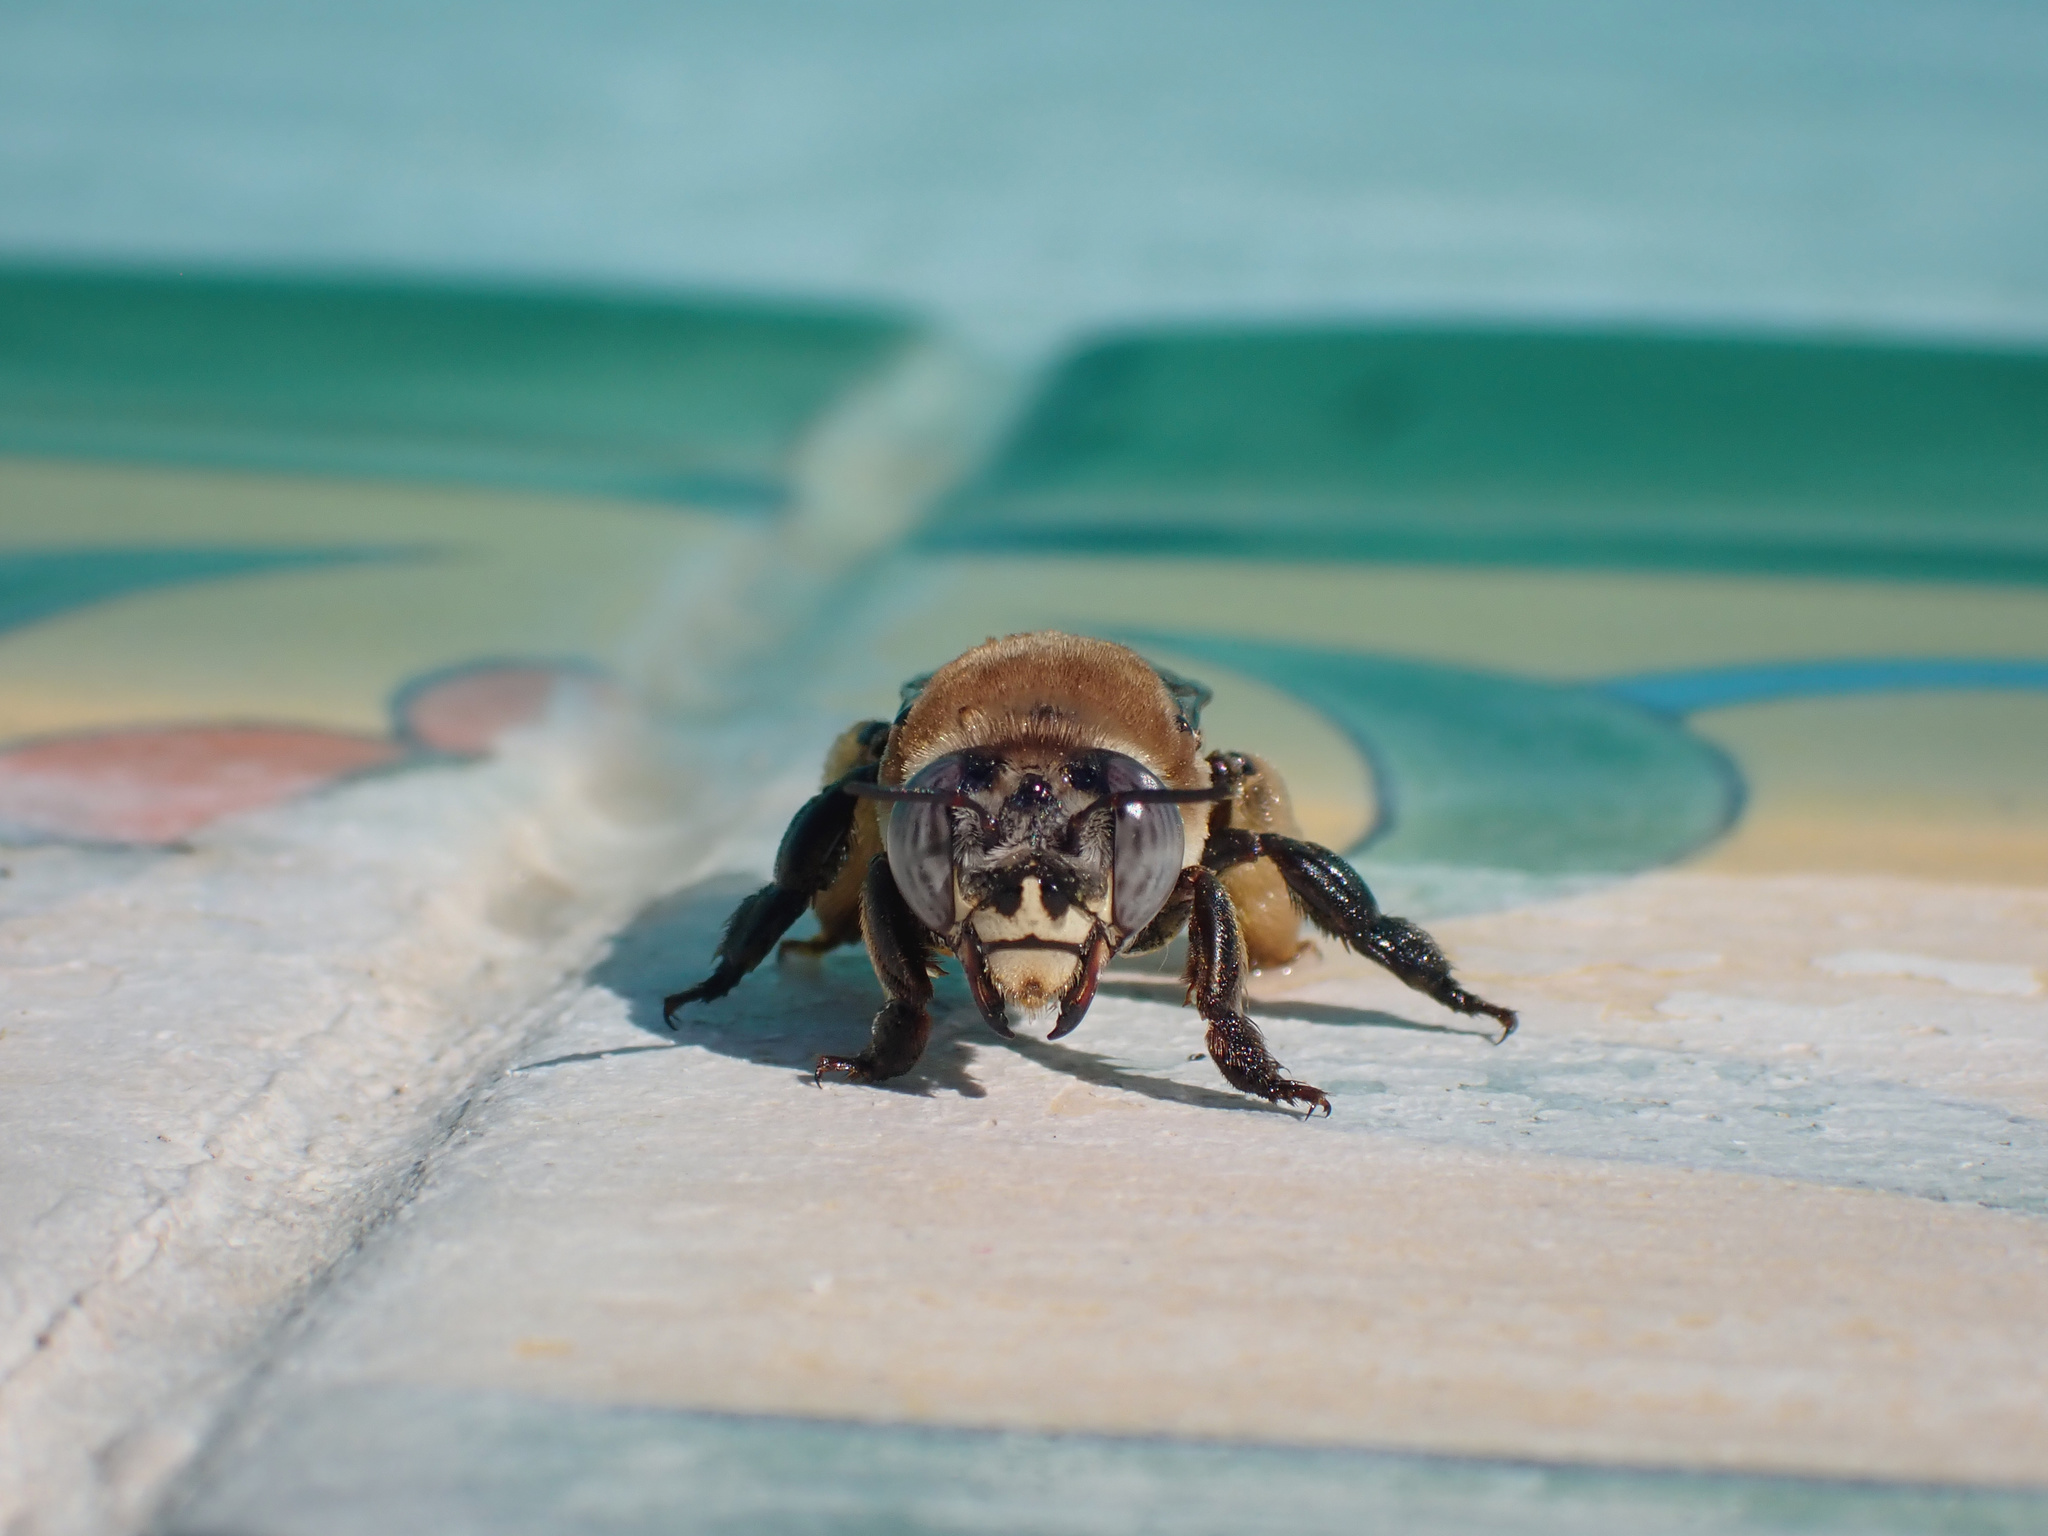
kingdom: Animalia
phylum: Arthropoda
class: Insecta
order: Hymenoptera
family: Apidae
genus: Centris
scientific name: Centris
